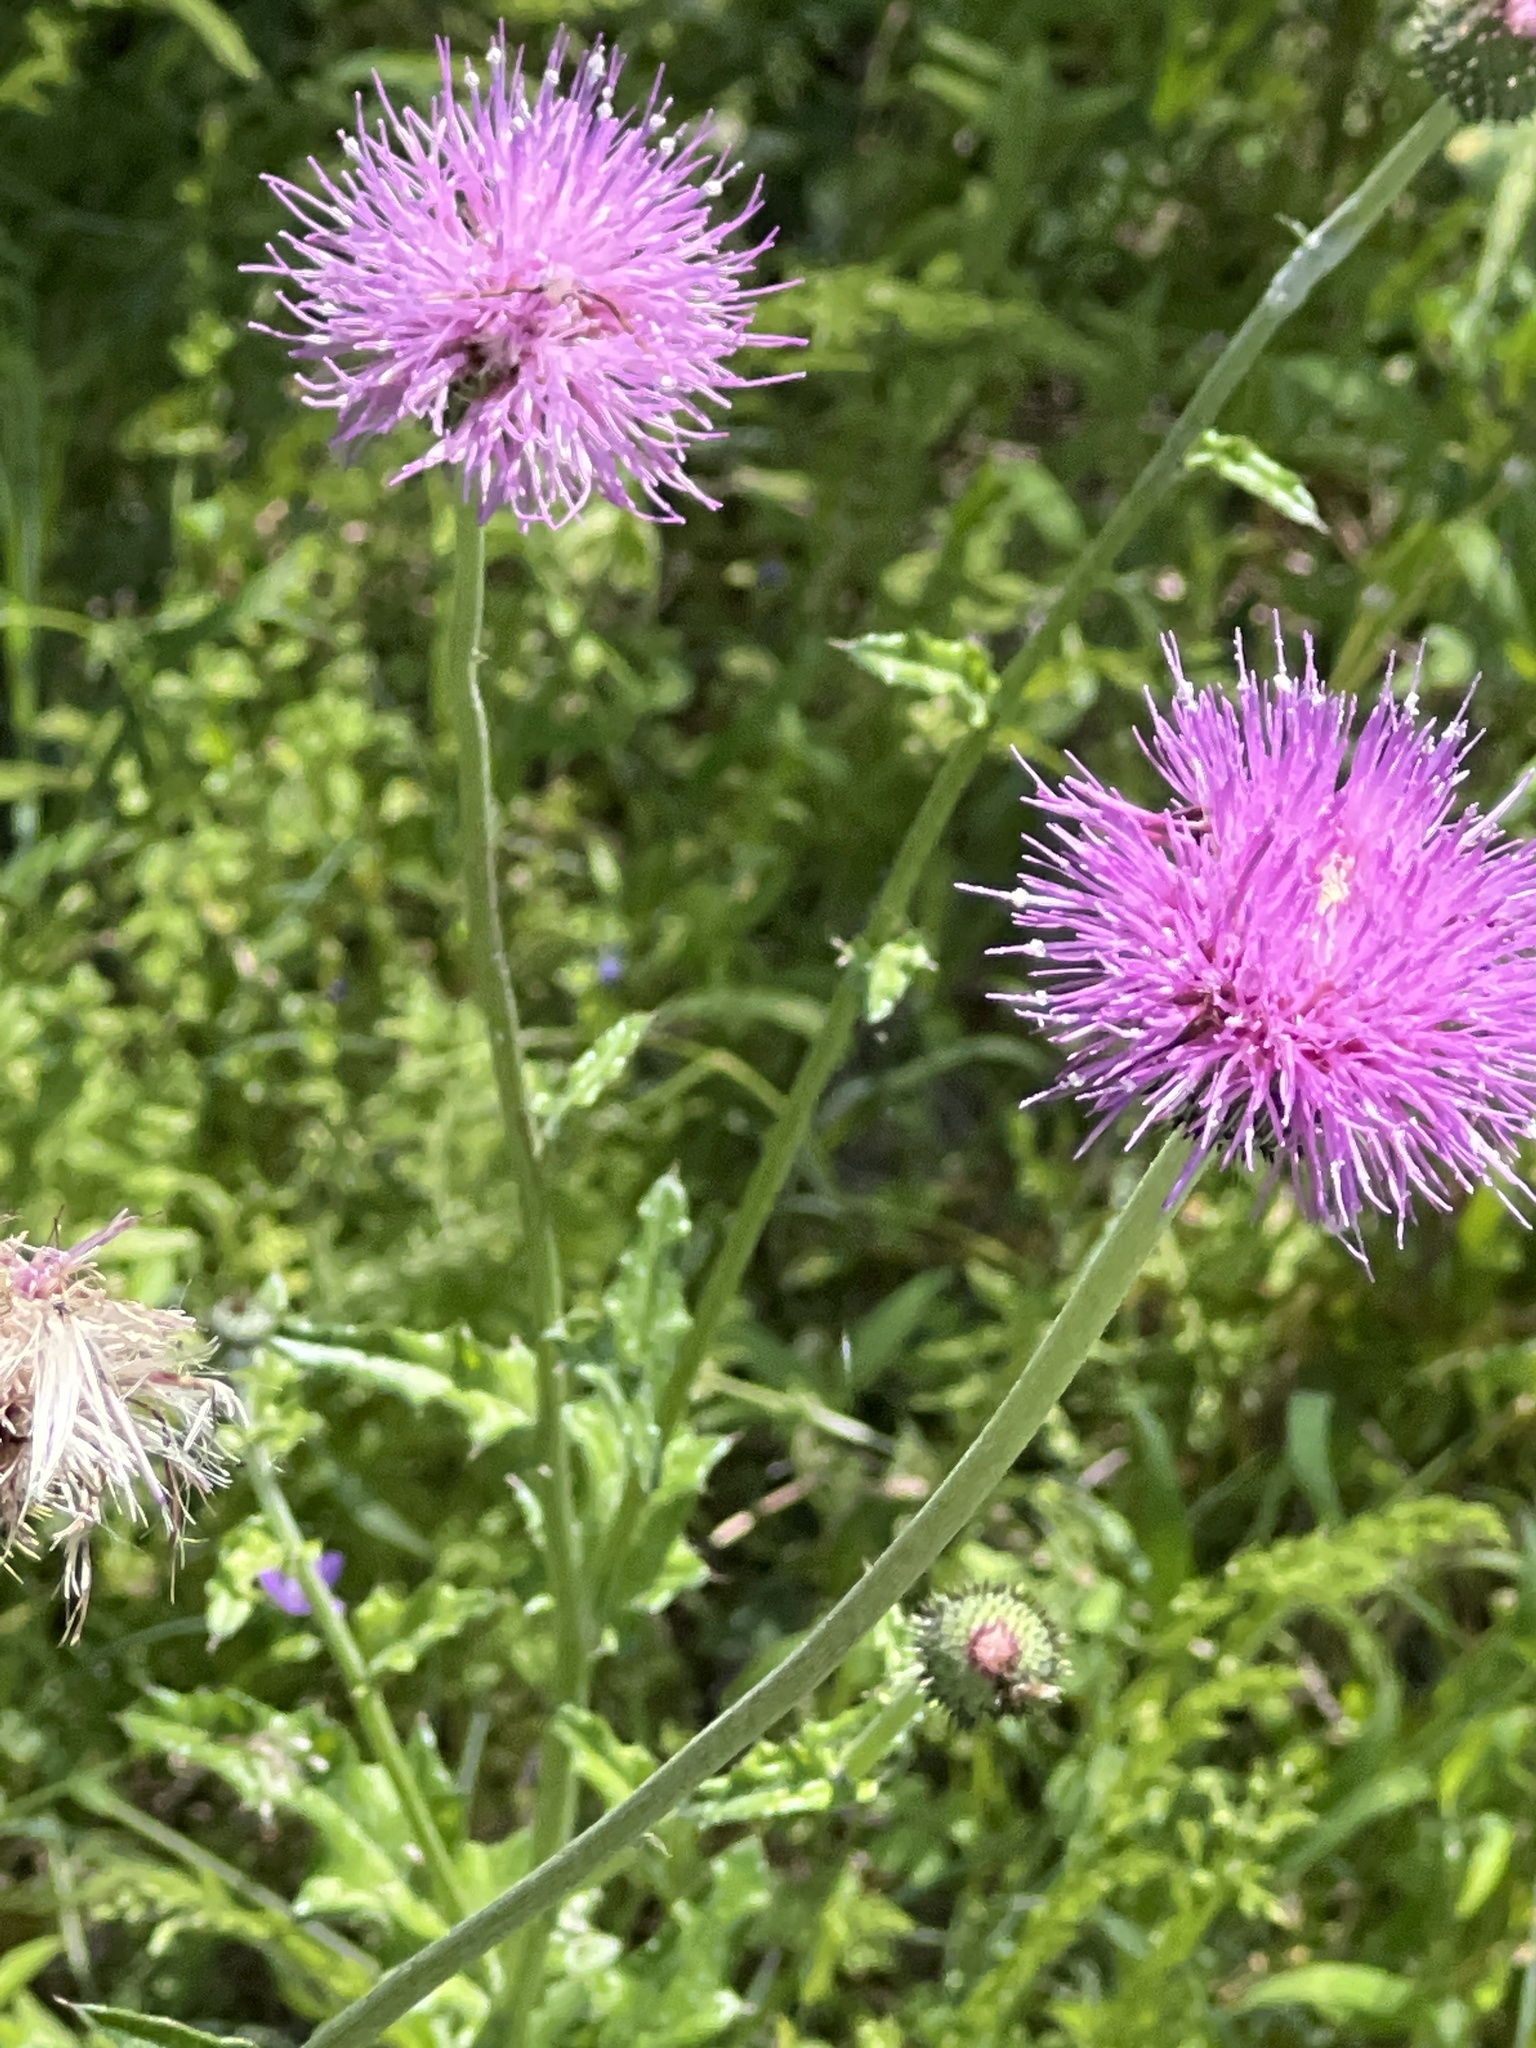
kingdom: Plantae
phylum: Tracheophyta
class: Magnoliopsida
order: Asterales
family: Asteraceae
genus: Cirsium
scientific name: Cirsium texanum
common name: Texas purple thistle
